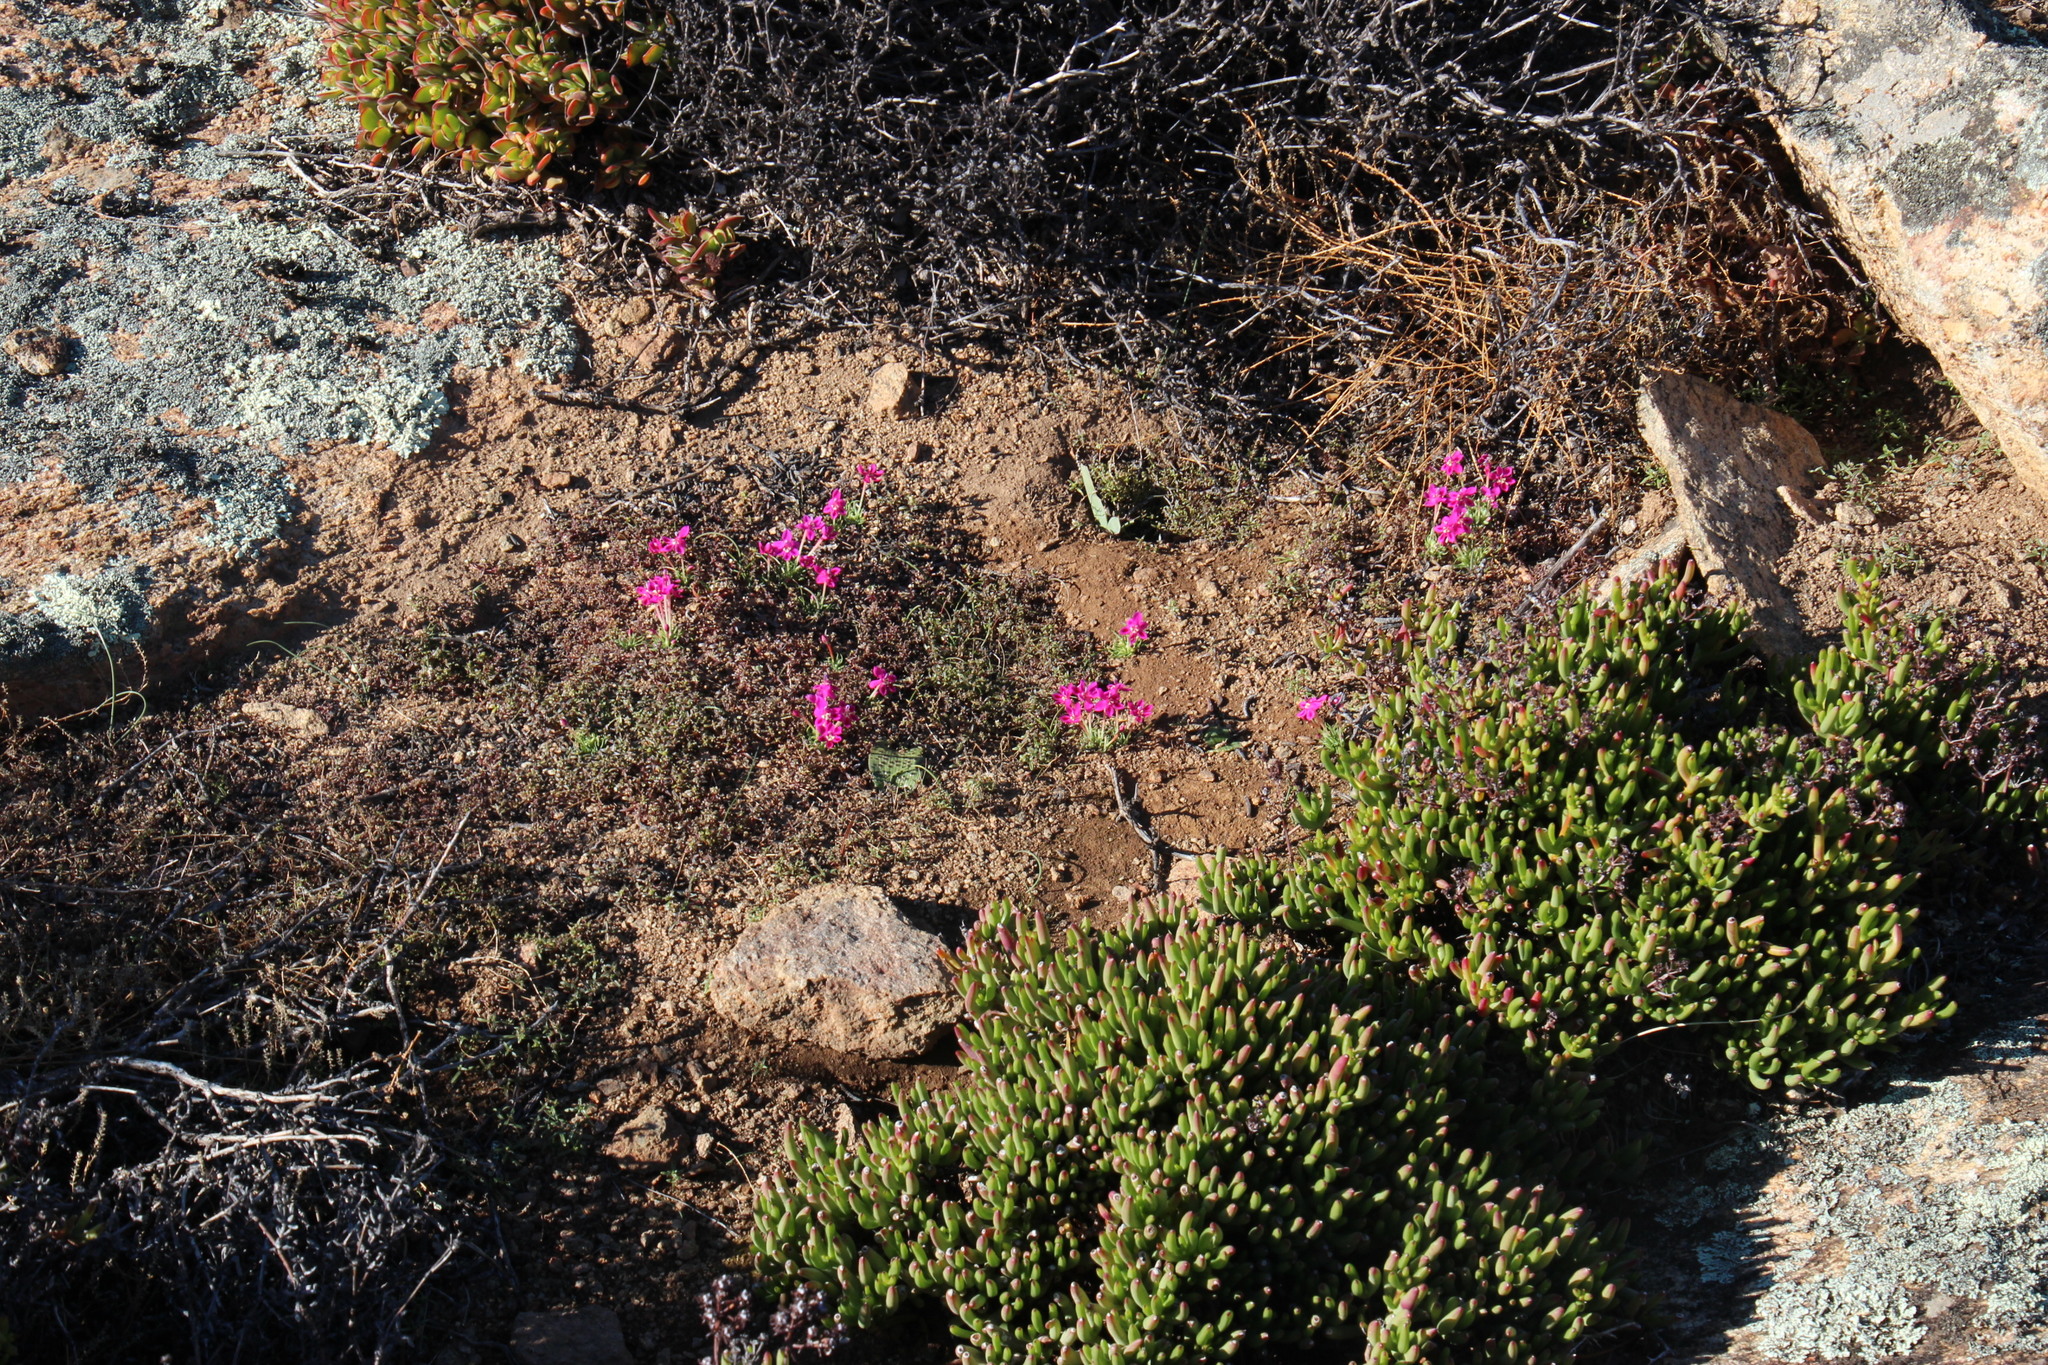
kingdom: Plantae
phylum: Tracheophyta
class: Liliopsida
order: Asparagales
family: Iridaceae
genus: Lapeirousia
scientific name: Lapeirousia silenoides
